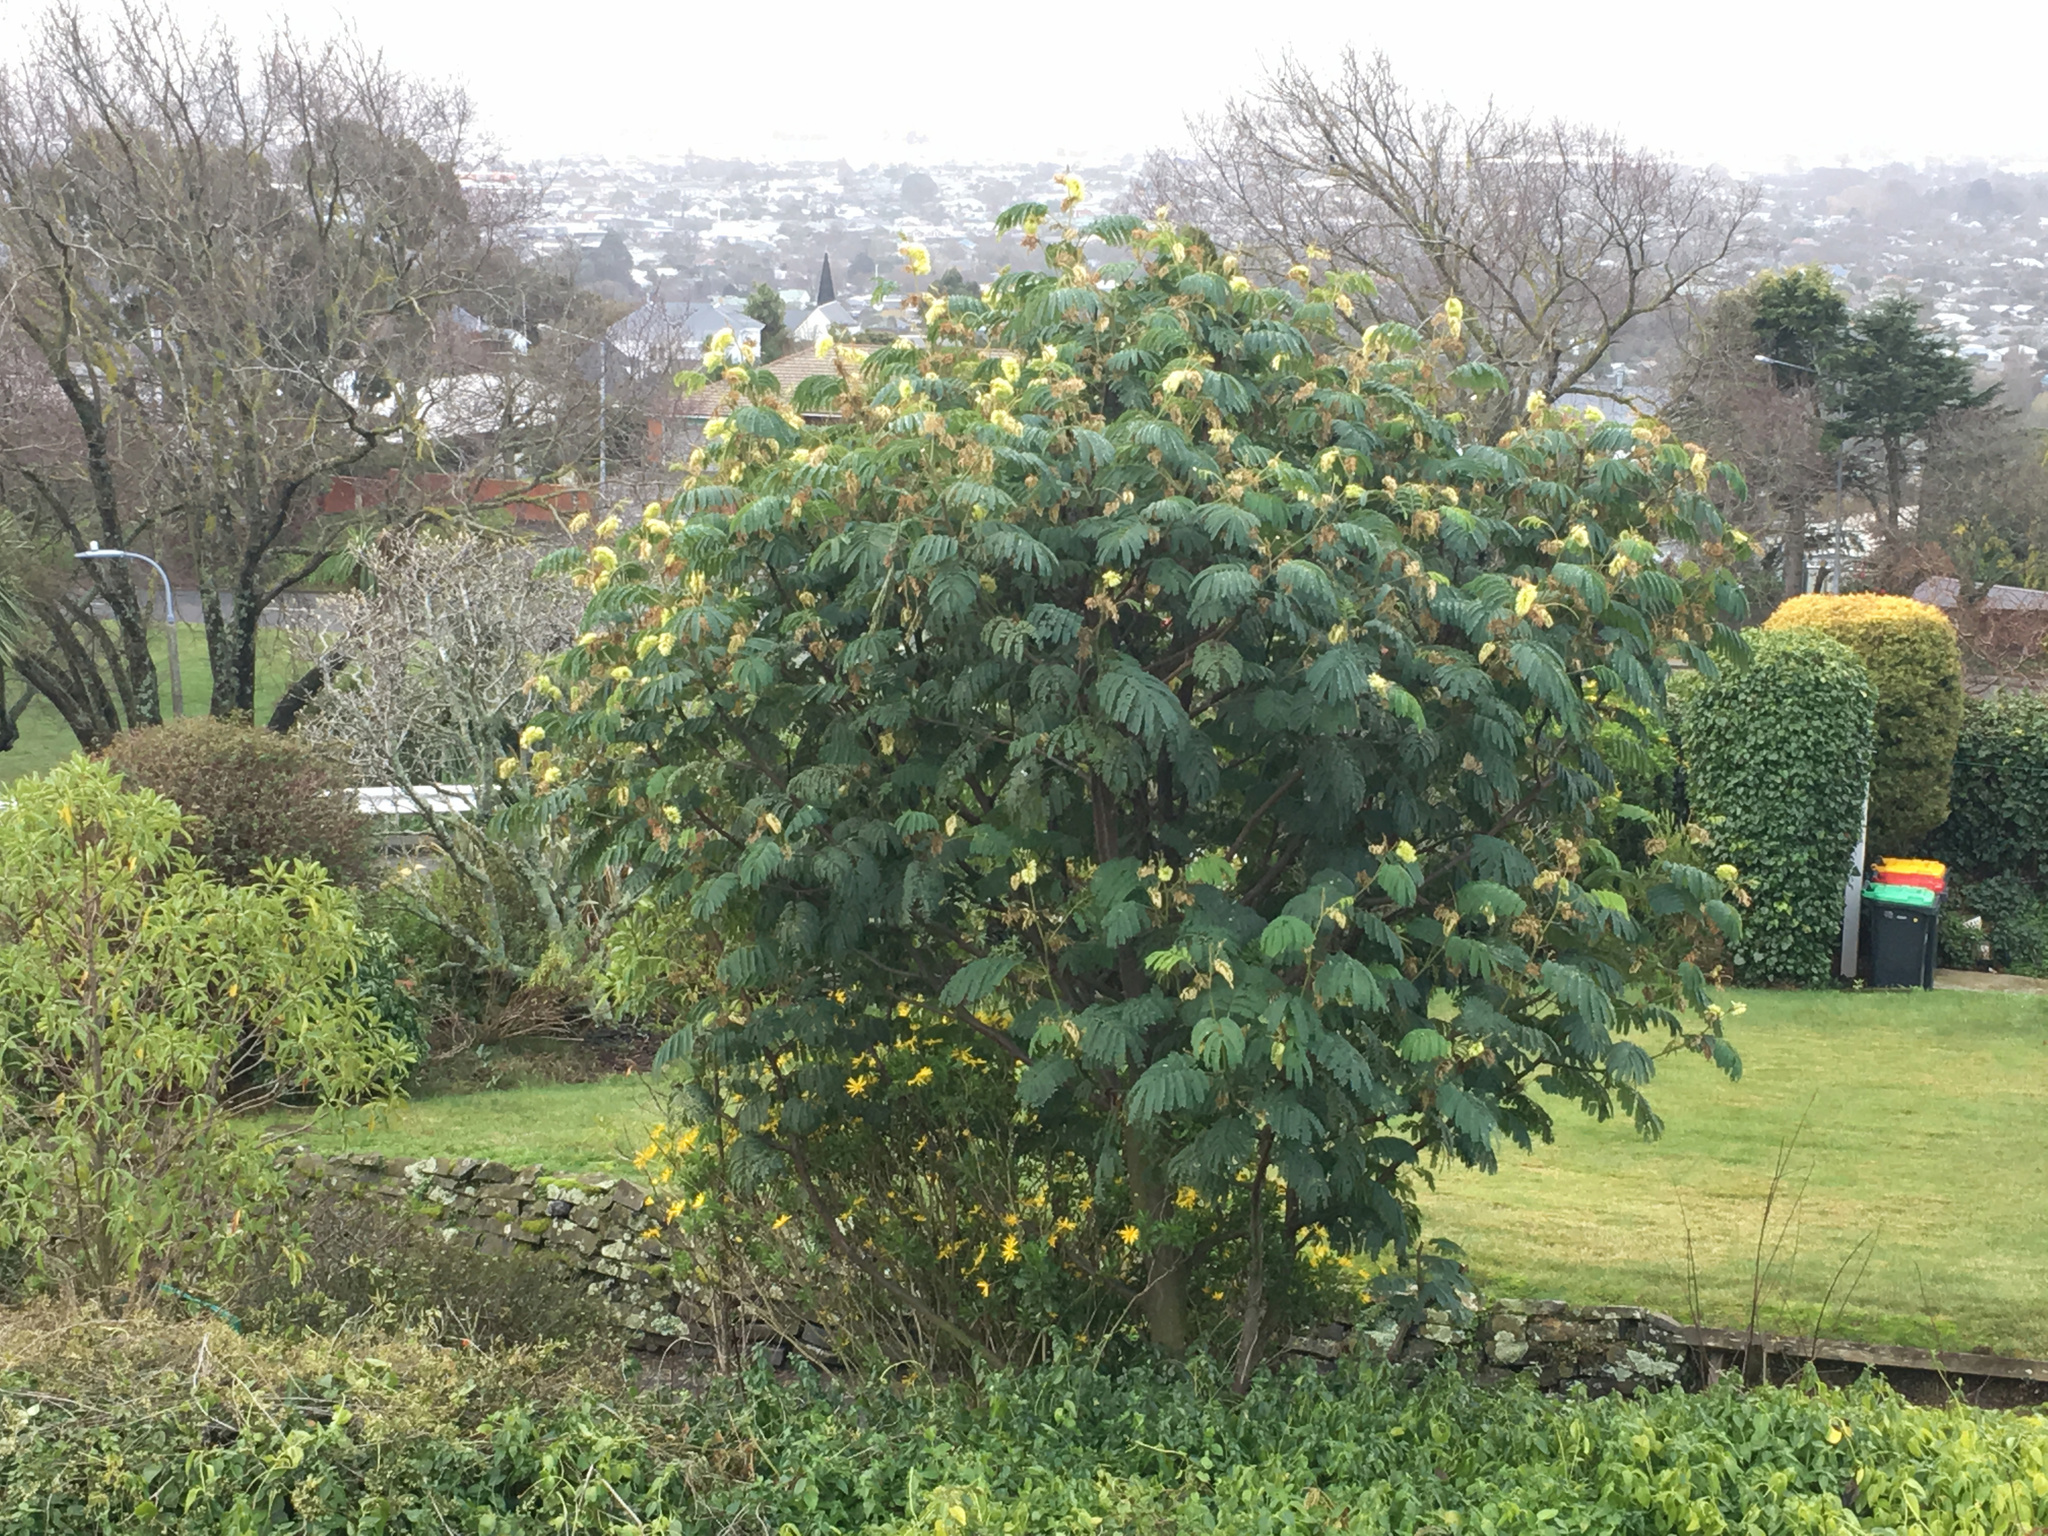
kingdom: Plantae
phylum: Tracheophyta
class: Magnoliopsida
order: Fabales
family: Fabaceae
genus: Paraserianthes
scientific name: Paraserianthes lophantha
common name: Plume albizia
